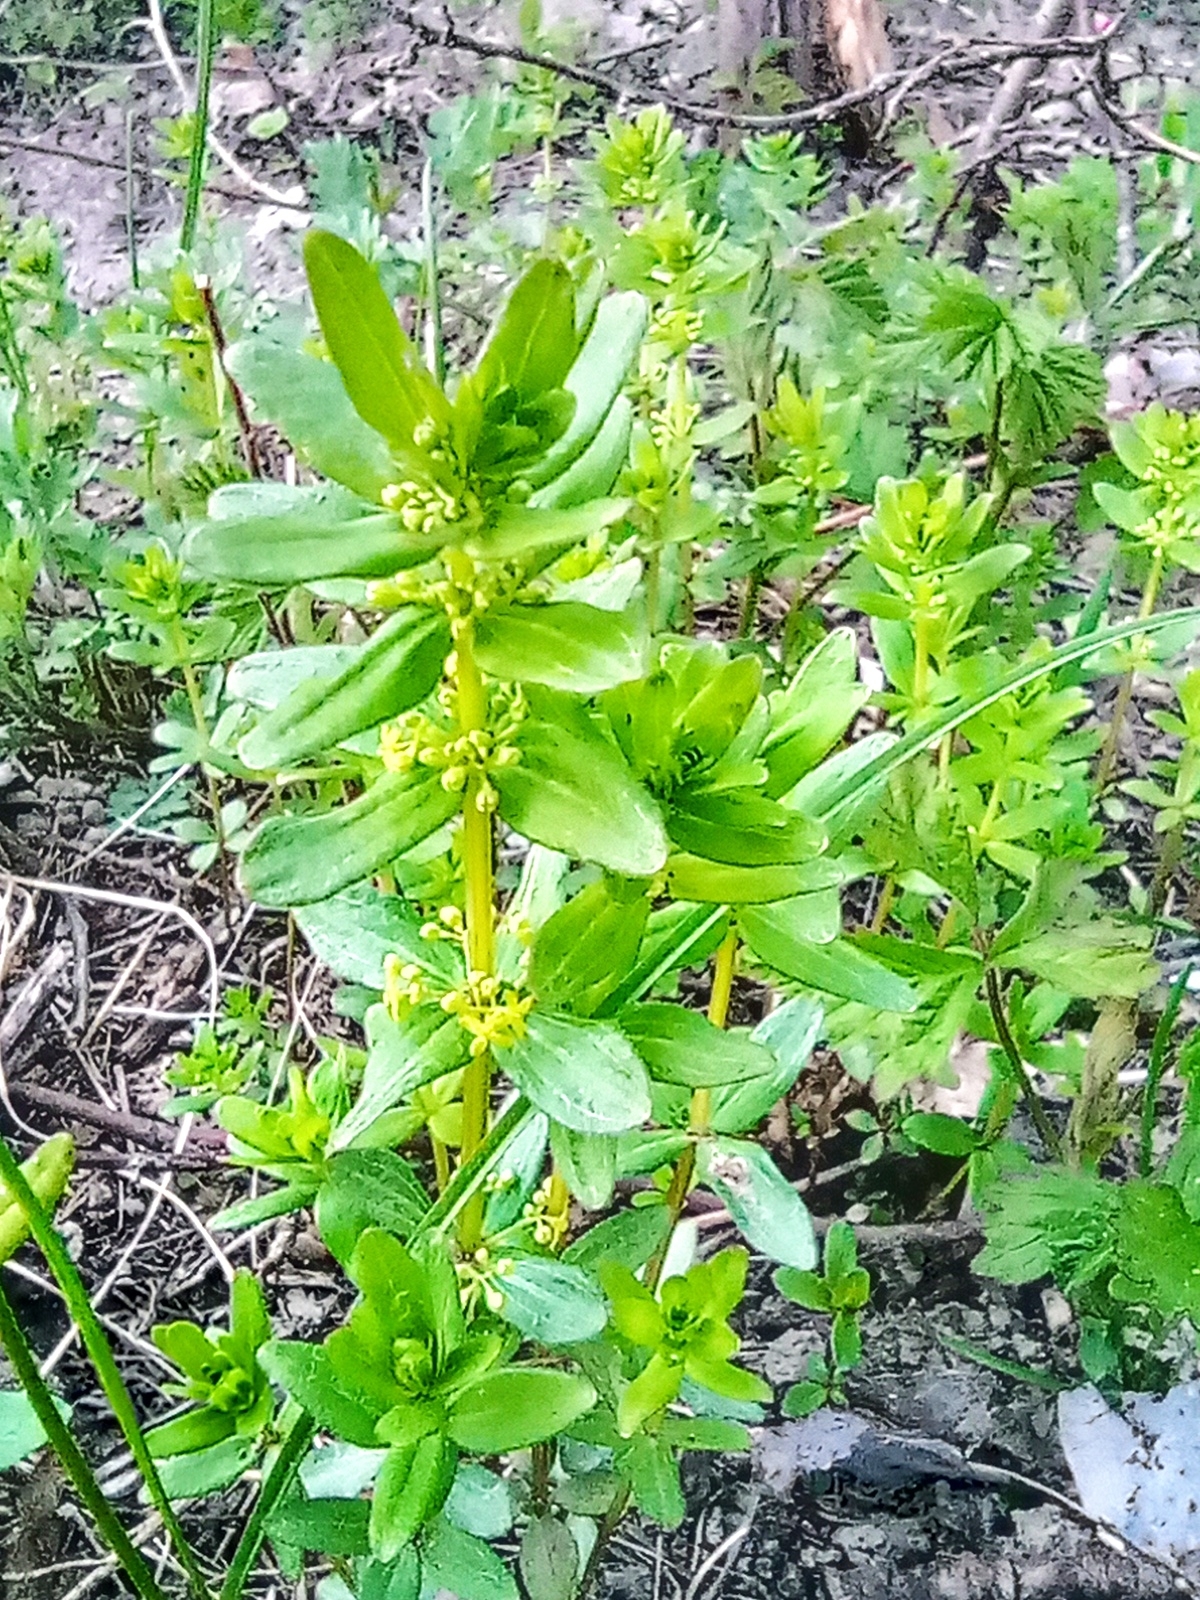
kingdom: Plantae
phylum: Tracheophyta
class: Magnoliopsida
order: Gentianales
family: Rubiaceae
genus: Cruciata
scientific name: Cruciata glabra
